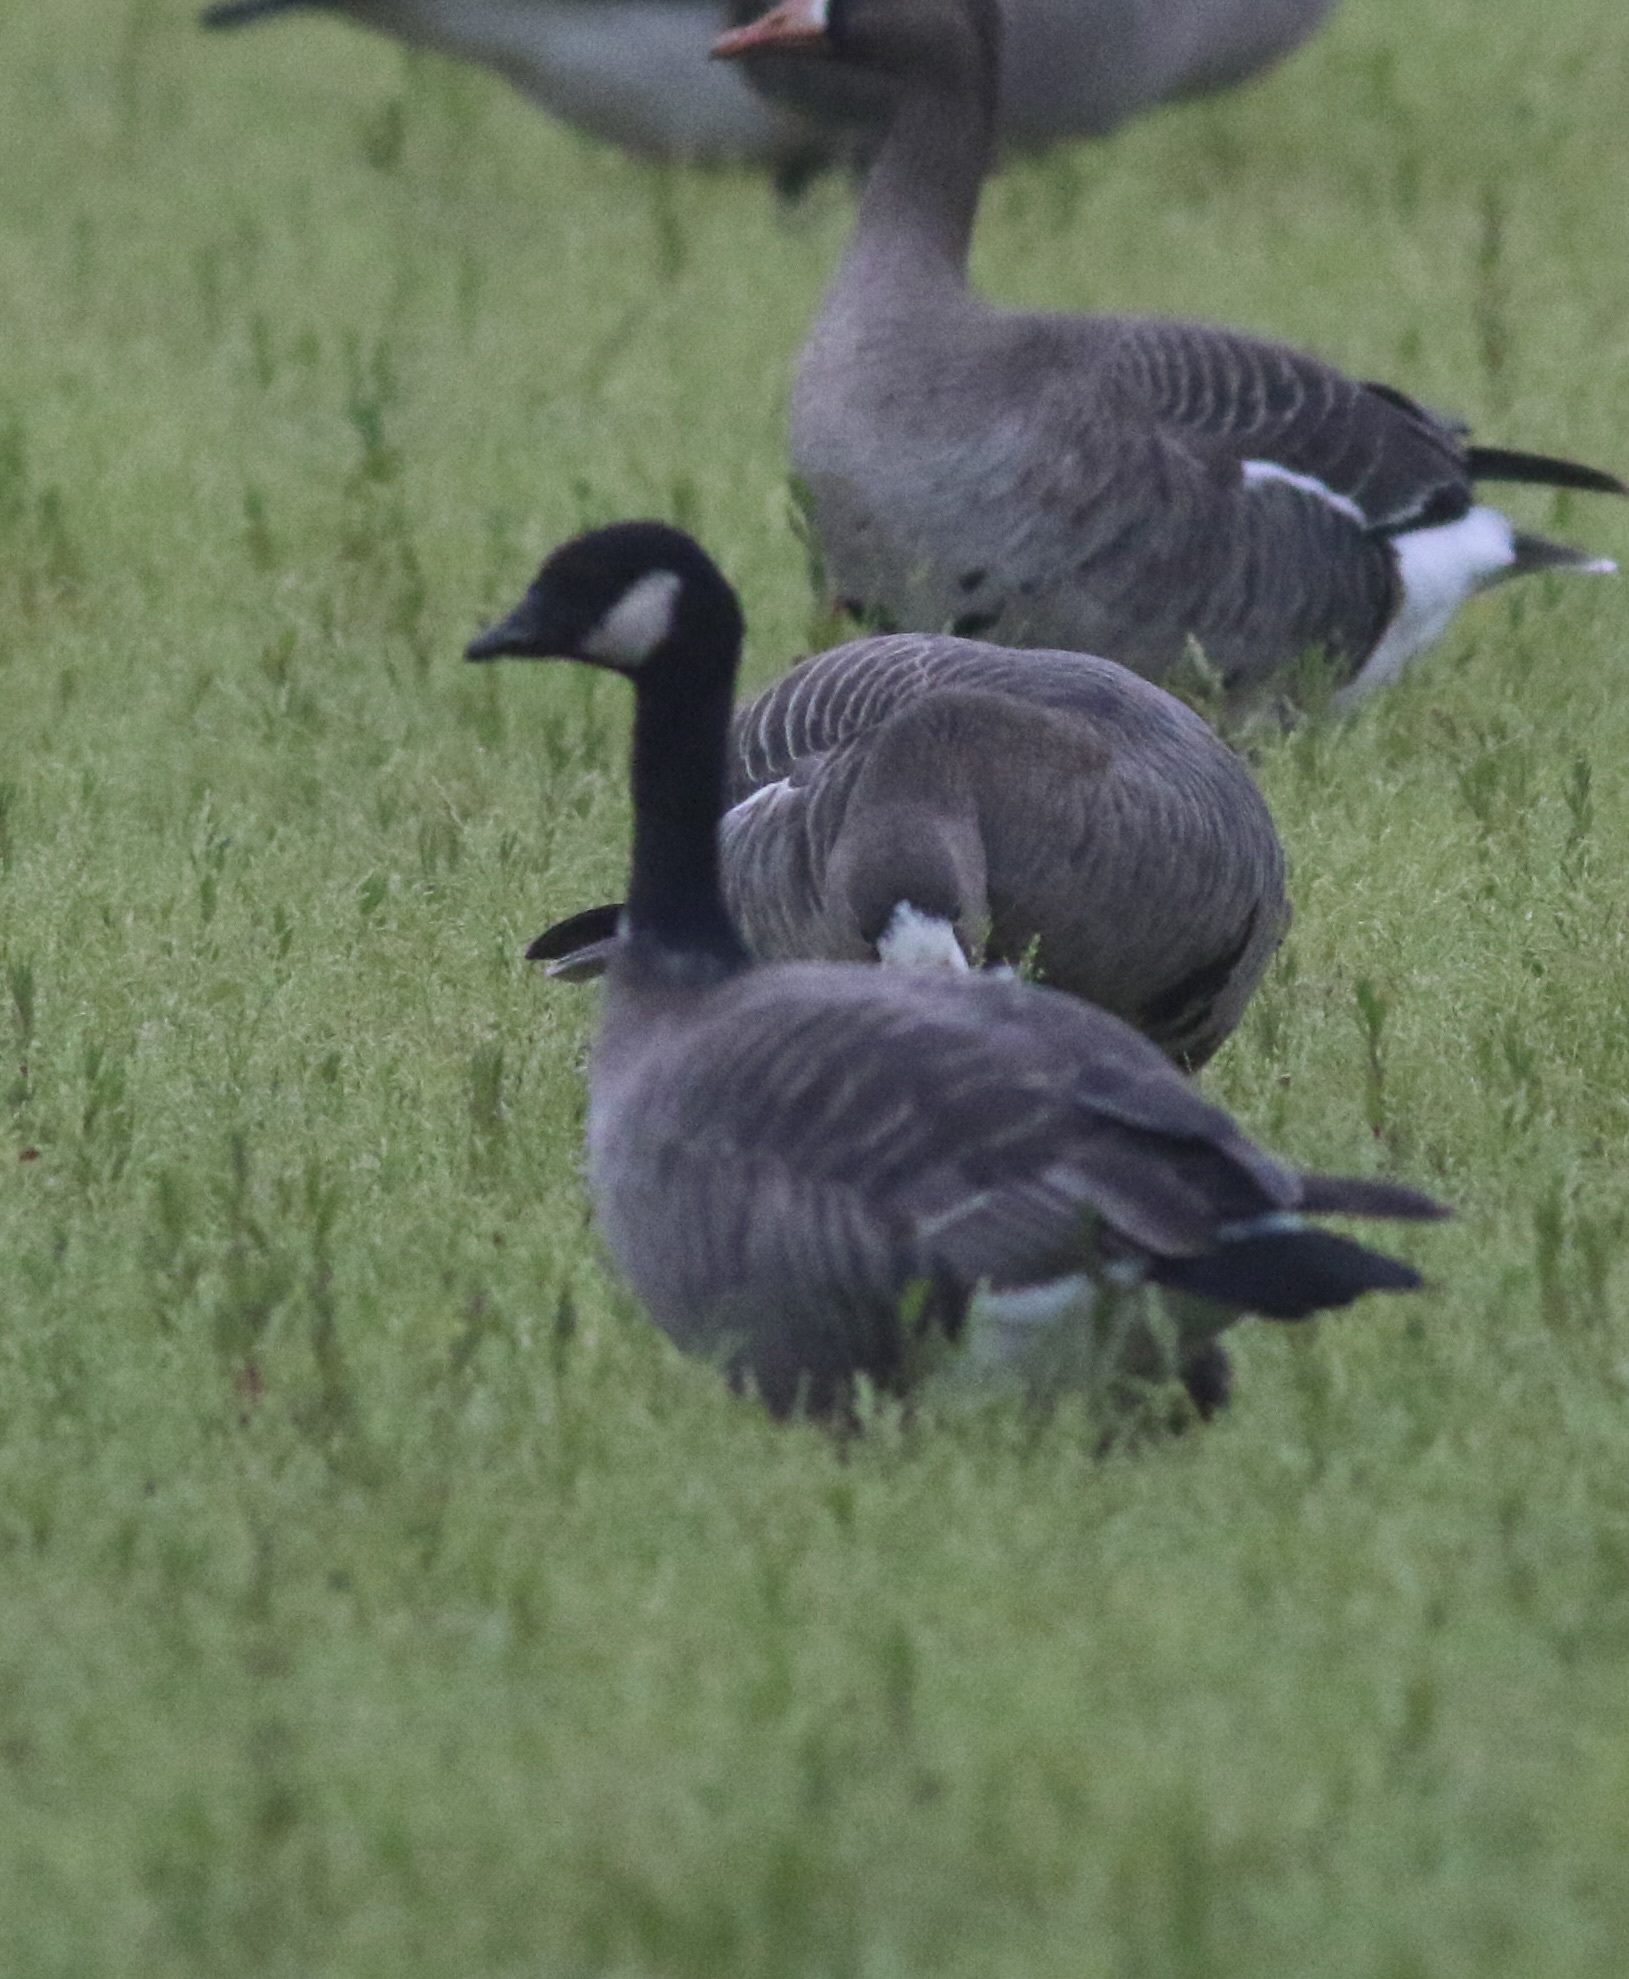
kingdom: Animalia
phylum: Chordata
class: Aves
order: Anseriformes
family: Anatidae
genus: Branta
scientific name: Branta hutchinsii
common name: Cackling goose
